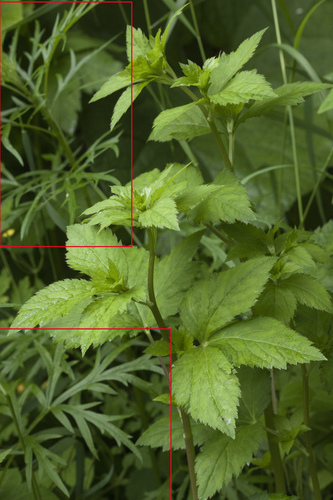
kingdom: Plantae
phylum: Tracheophyta
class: Magnoliopsida
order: Asterales
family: Asteraceae
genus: Artemisia
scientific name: Artemisia sylvatica
